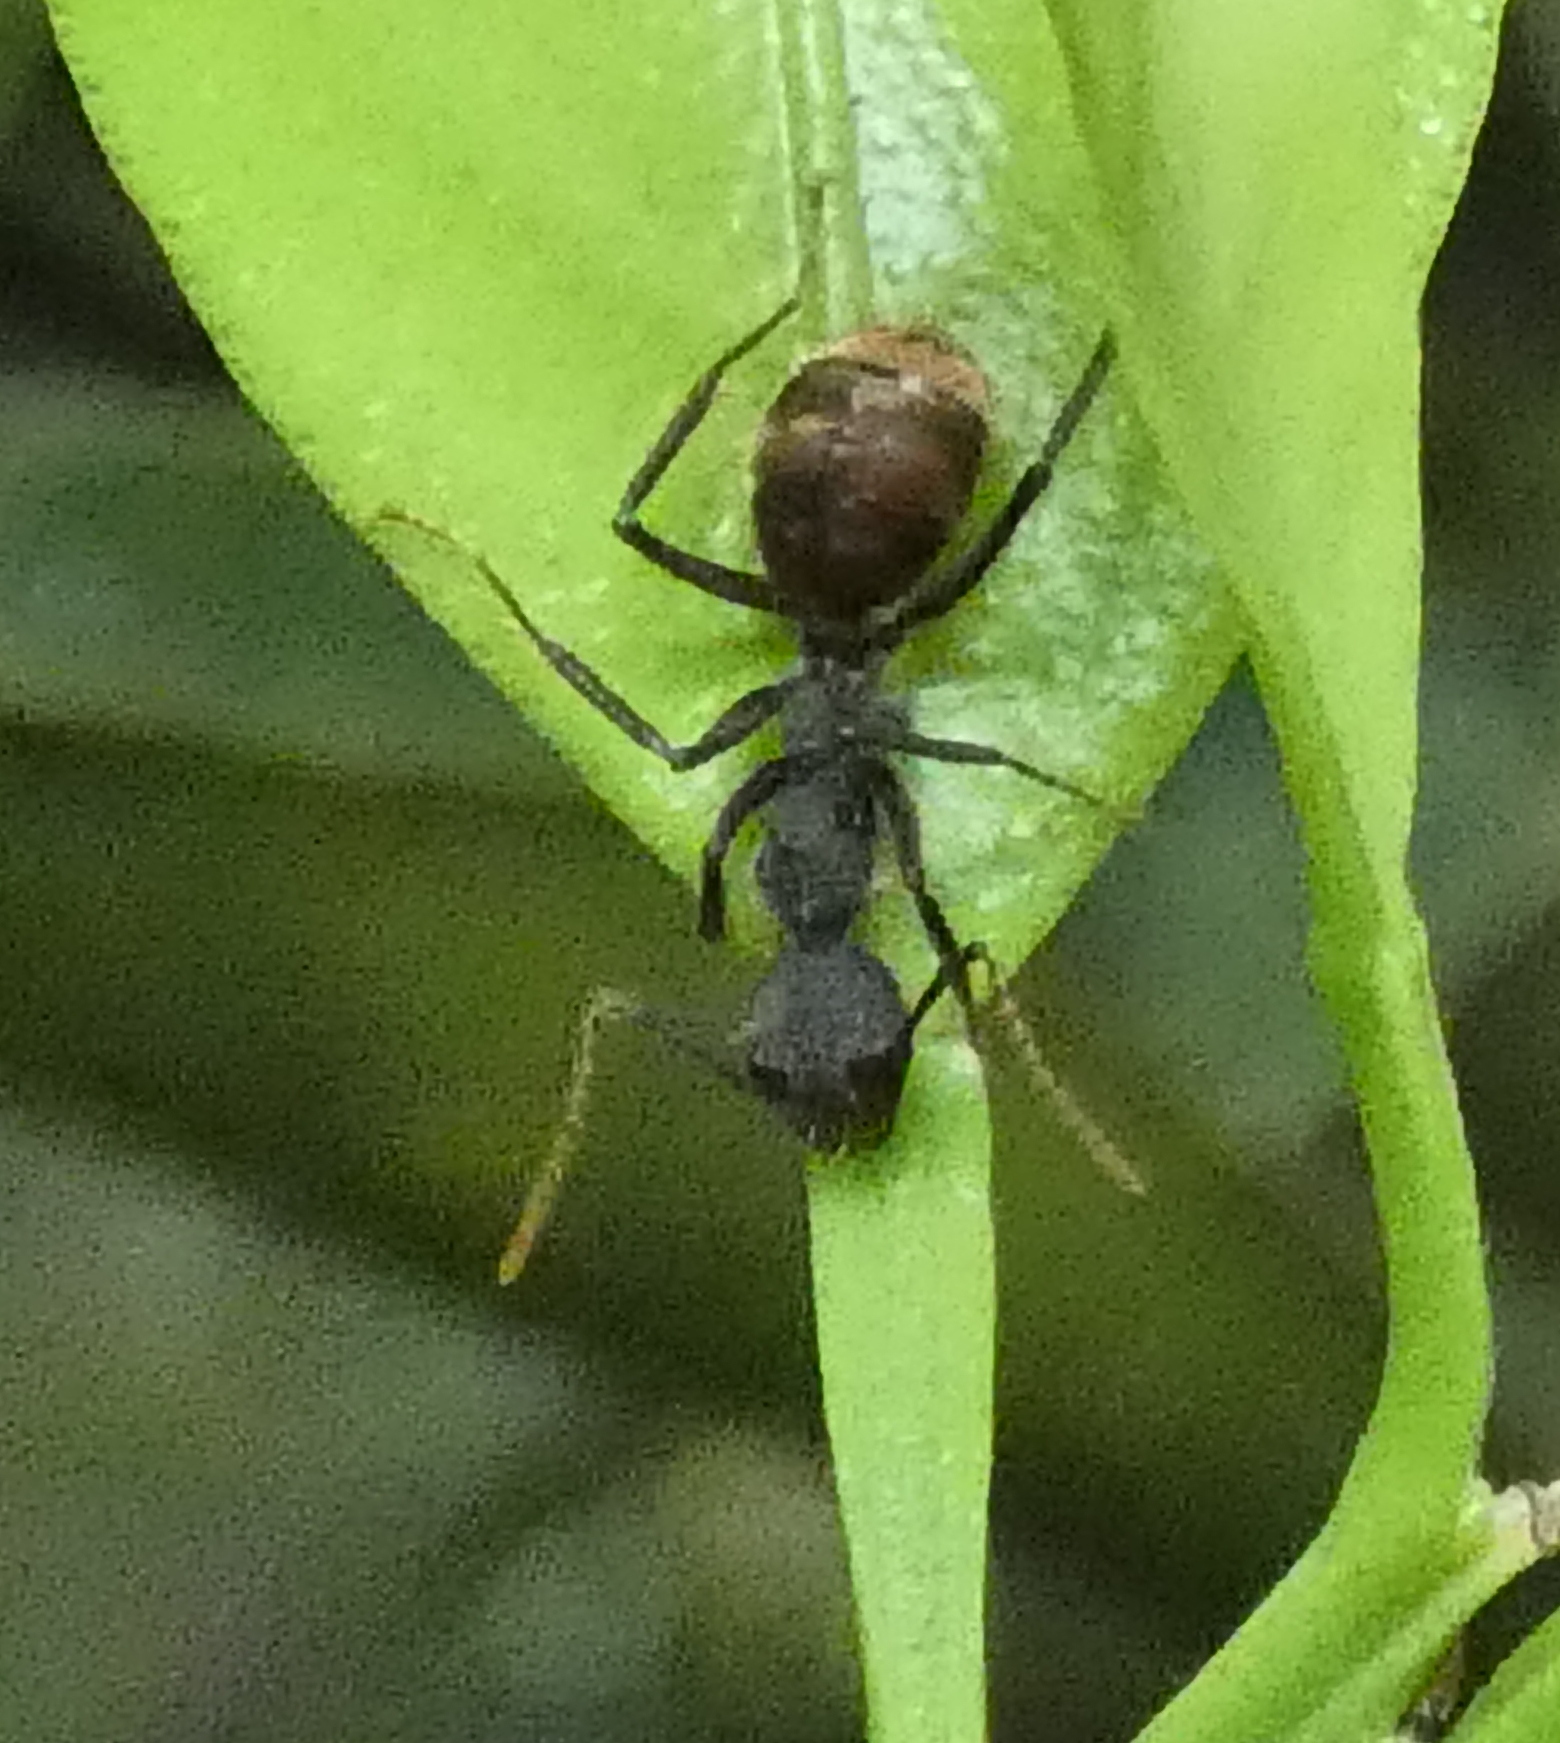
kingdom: Animalia
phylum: Arthropoda
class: Insecta
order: Hymenoptera
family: Formicidae
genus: Dolichoderus
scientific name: Dolichoderus bidens
